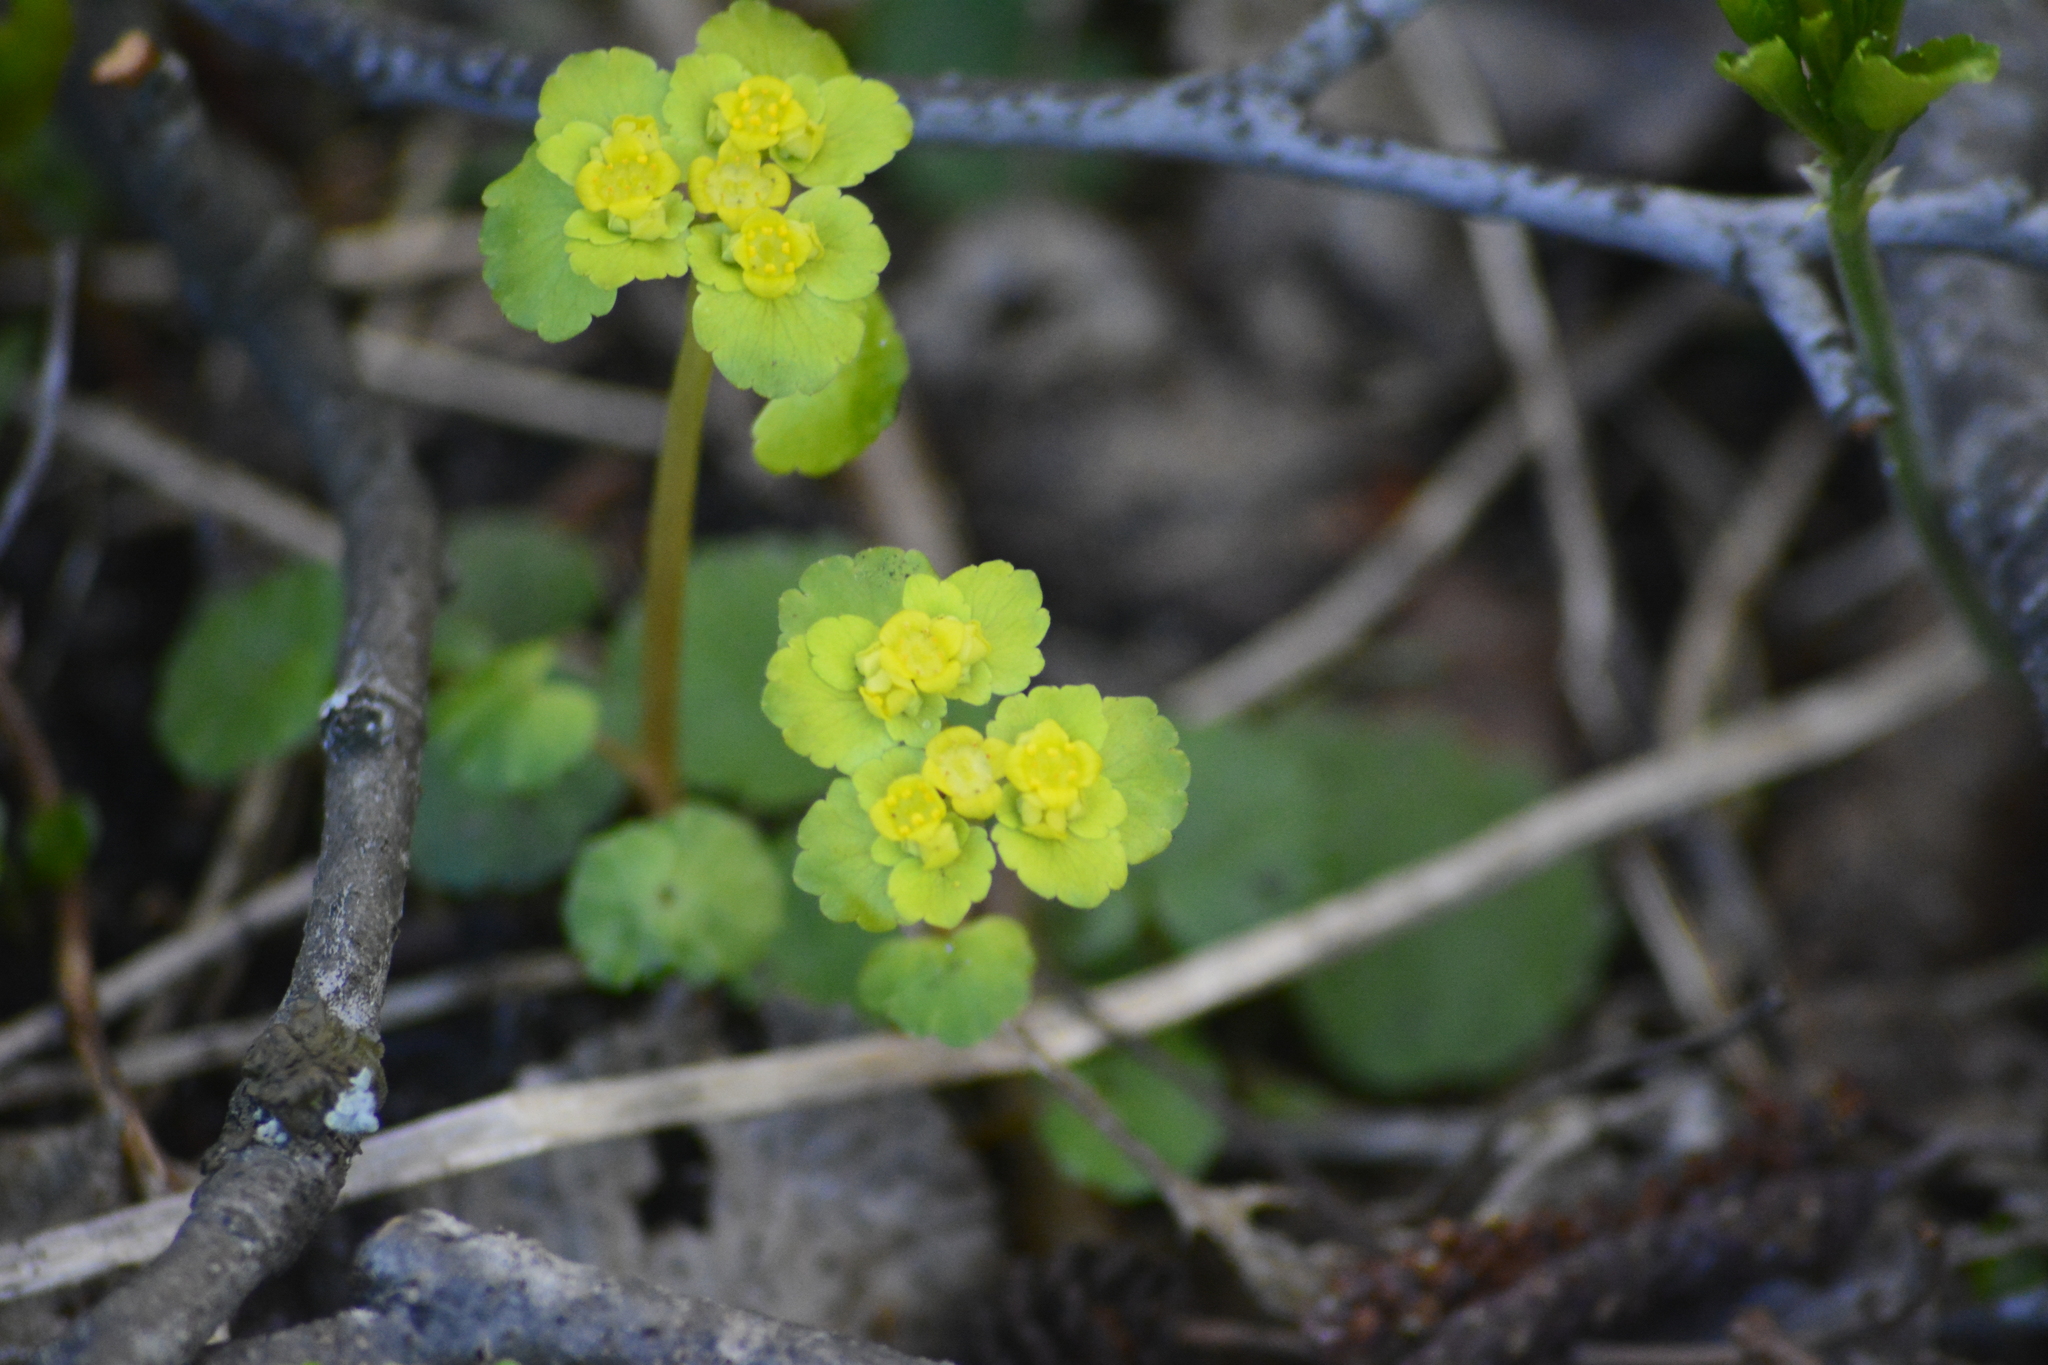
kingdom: Plantae
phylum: Tracheophyta
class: Magnoliopsida
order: Saxifragales
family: Saxifragaceae
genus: Chrysosplenium
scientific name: Chrysosplenium alternifolium
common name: Alternate-leaved golden-saxifrage
